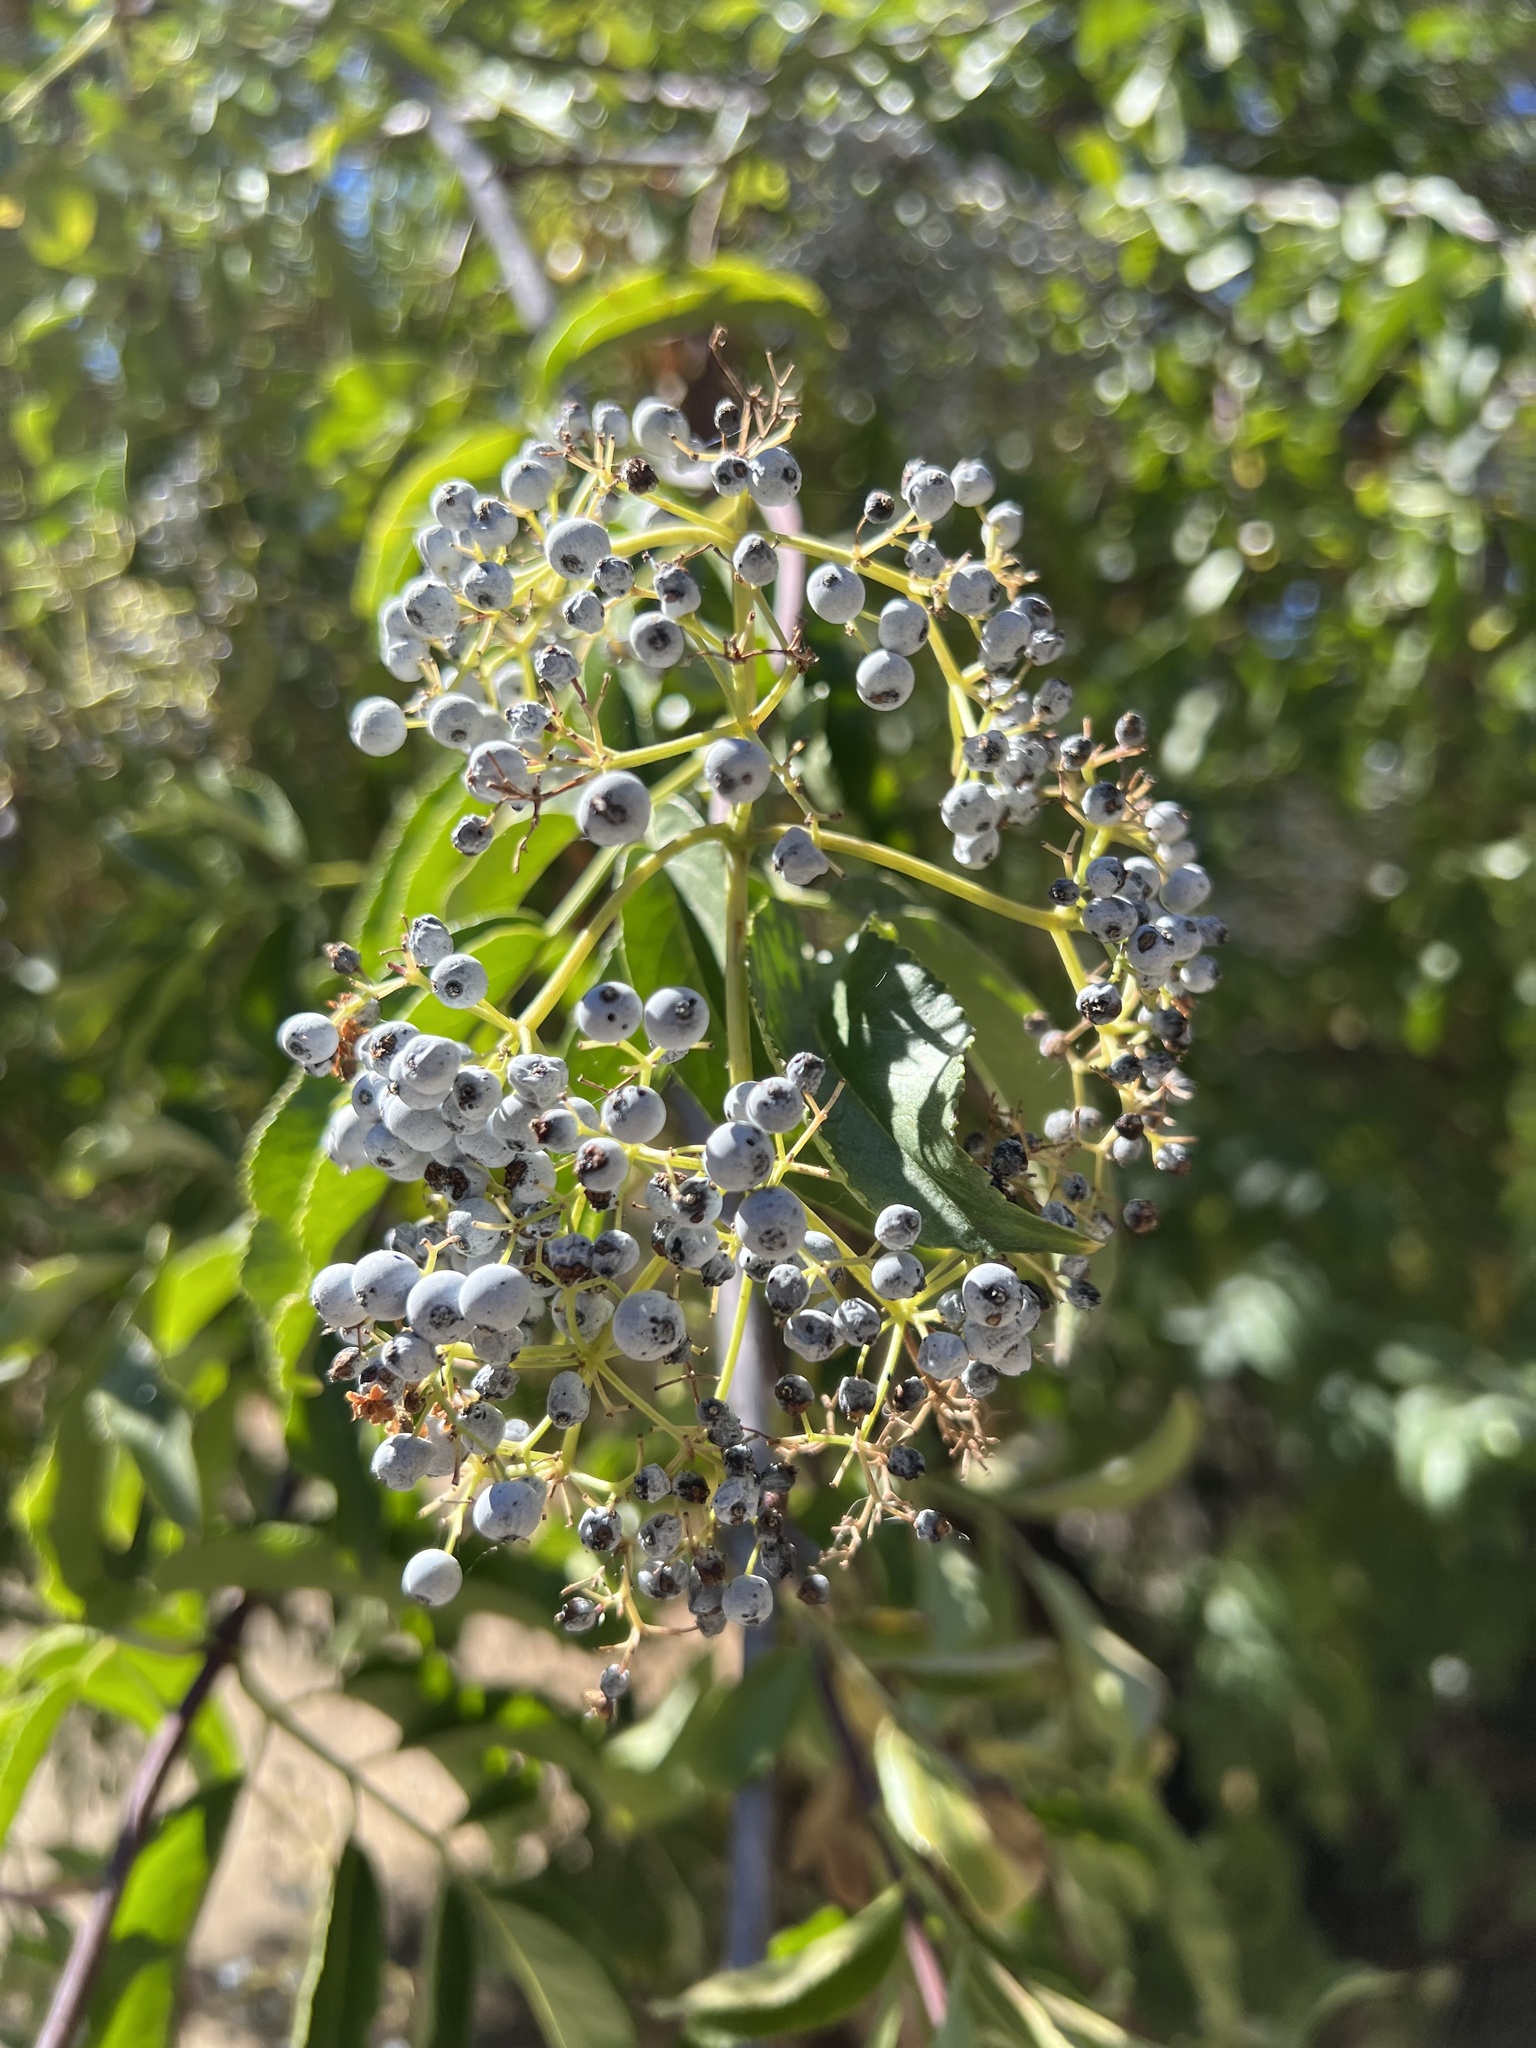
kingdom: Plantae
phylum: Tracheophyta
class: Magnoliopsida
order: Dipsacales
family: Viburnaceae
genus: Sambucus
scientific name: Sambucus cerulea
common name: Blue elder
